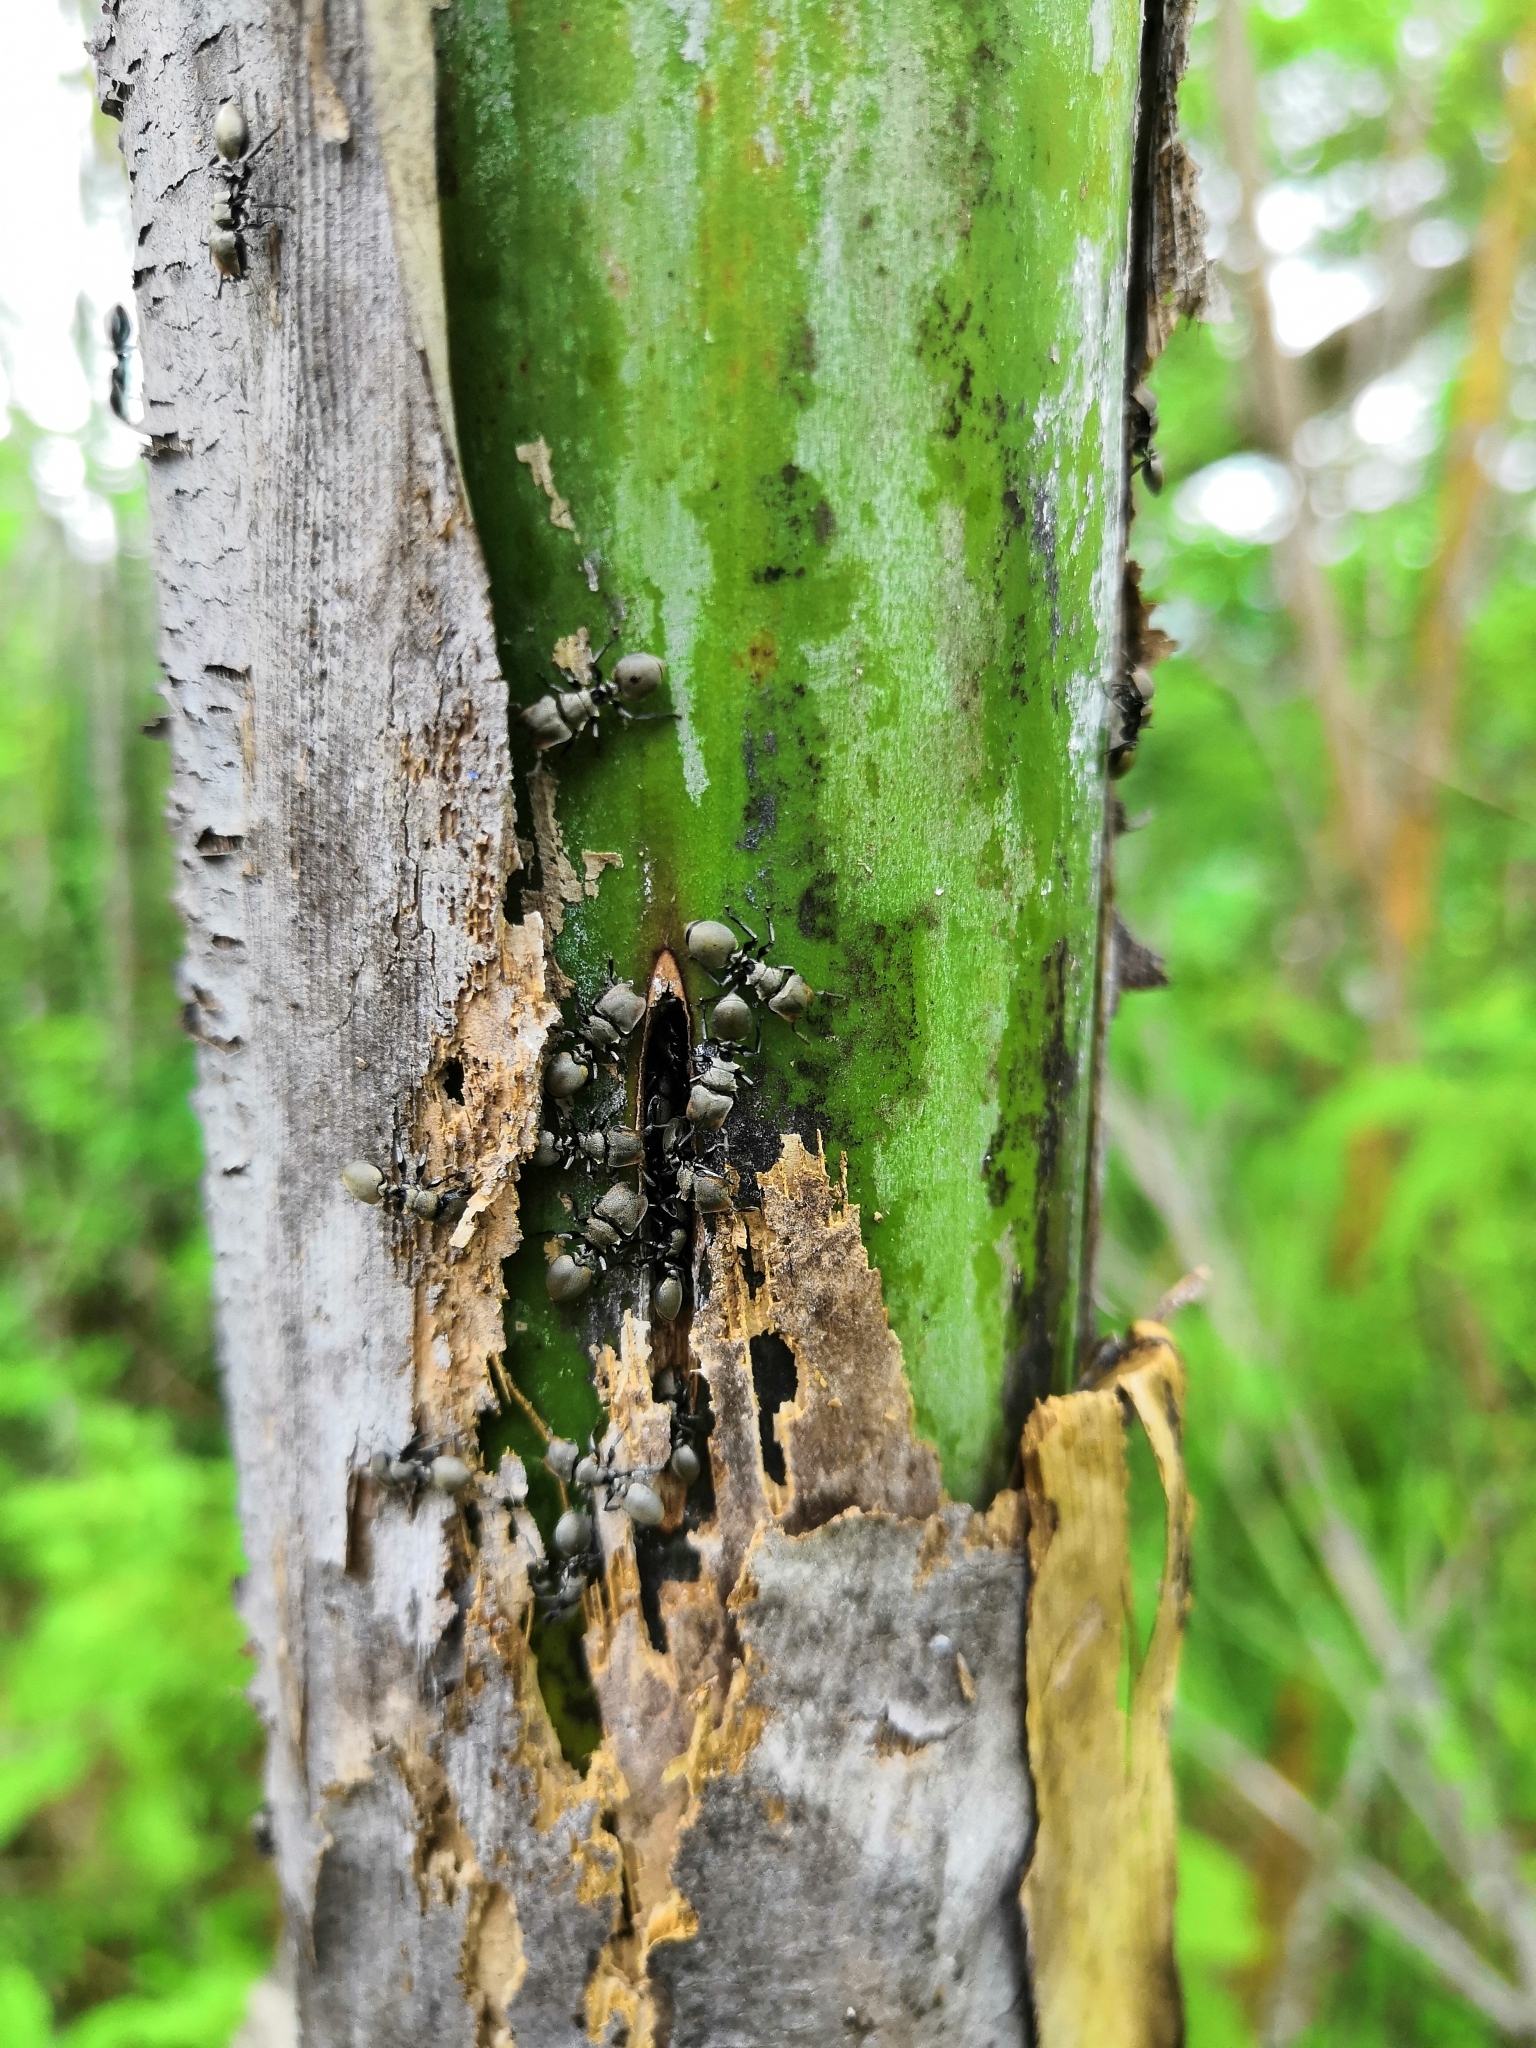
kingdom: Animalia
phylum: Arthropoda
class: Insecta
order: Hymenoptera
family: Formicidae
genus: Cephalotes
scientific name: Cephalotes goniodontus
